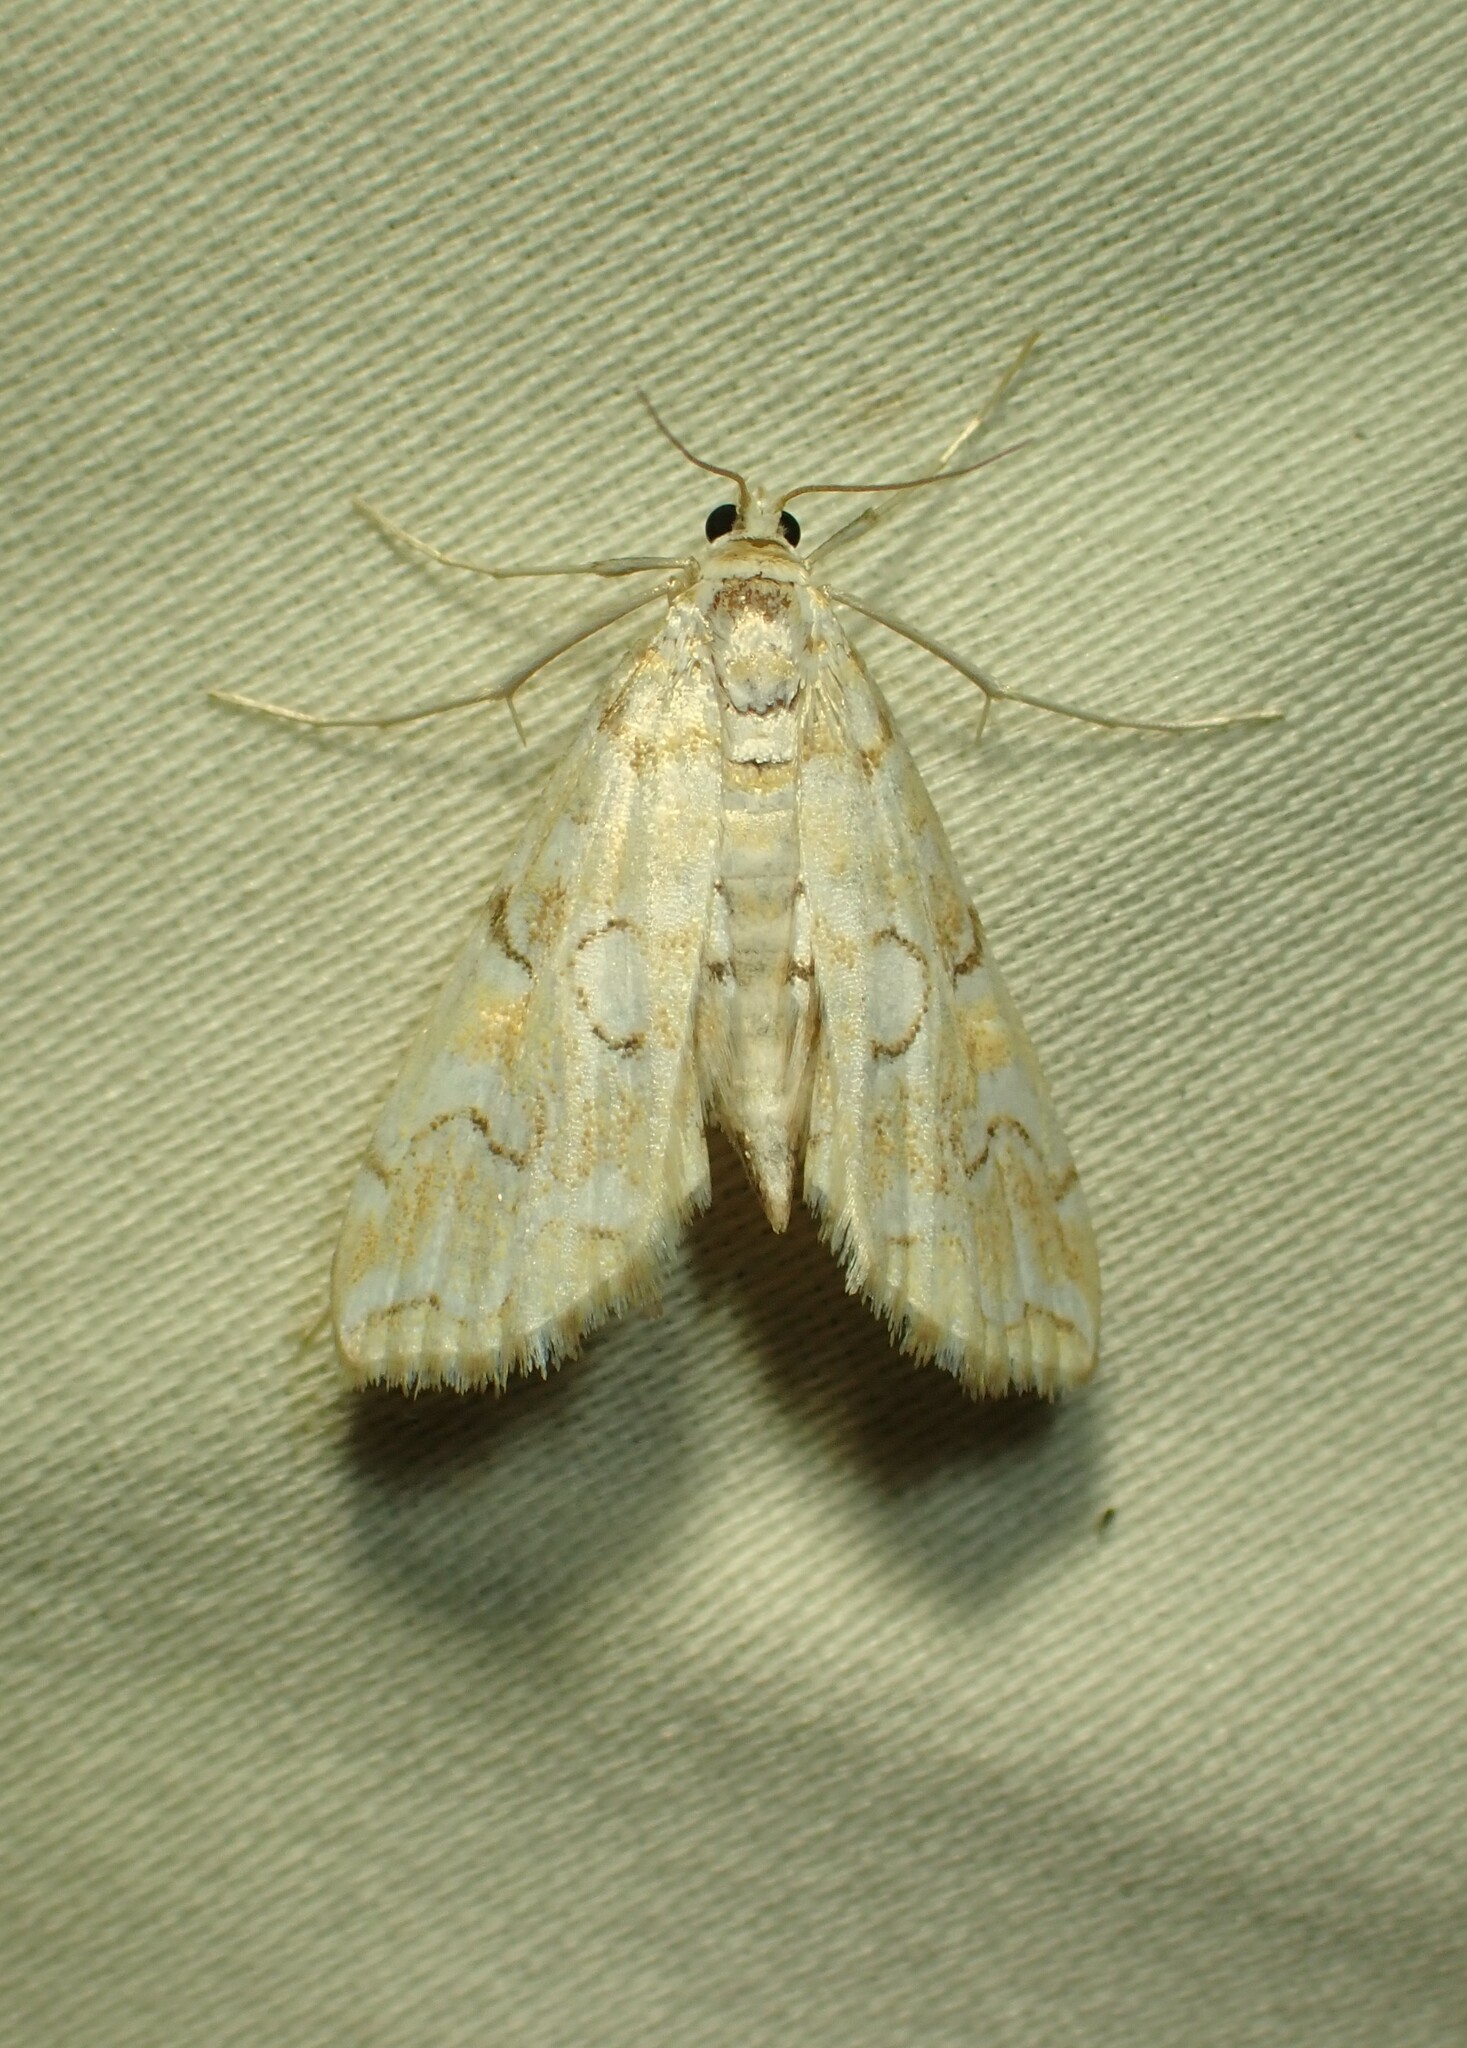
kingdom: Animalia
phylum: Arthropoda
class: Insecta
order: Lepidoptera
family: Crambidae
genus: Elophila
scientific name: Elophila icciusalis
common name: Pondside pyralid moth
